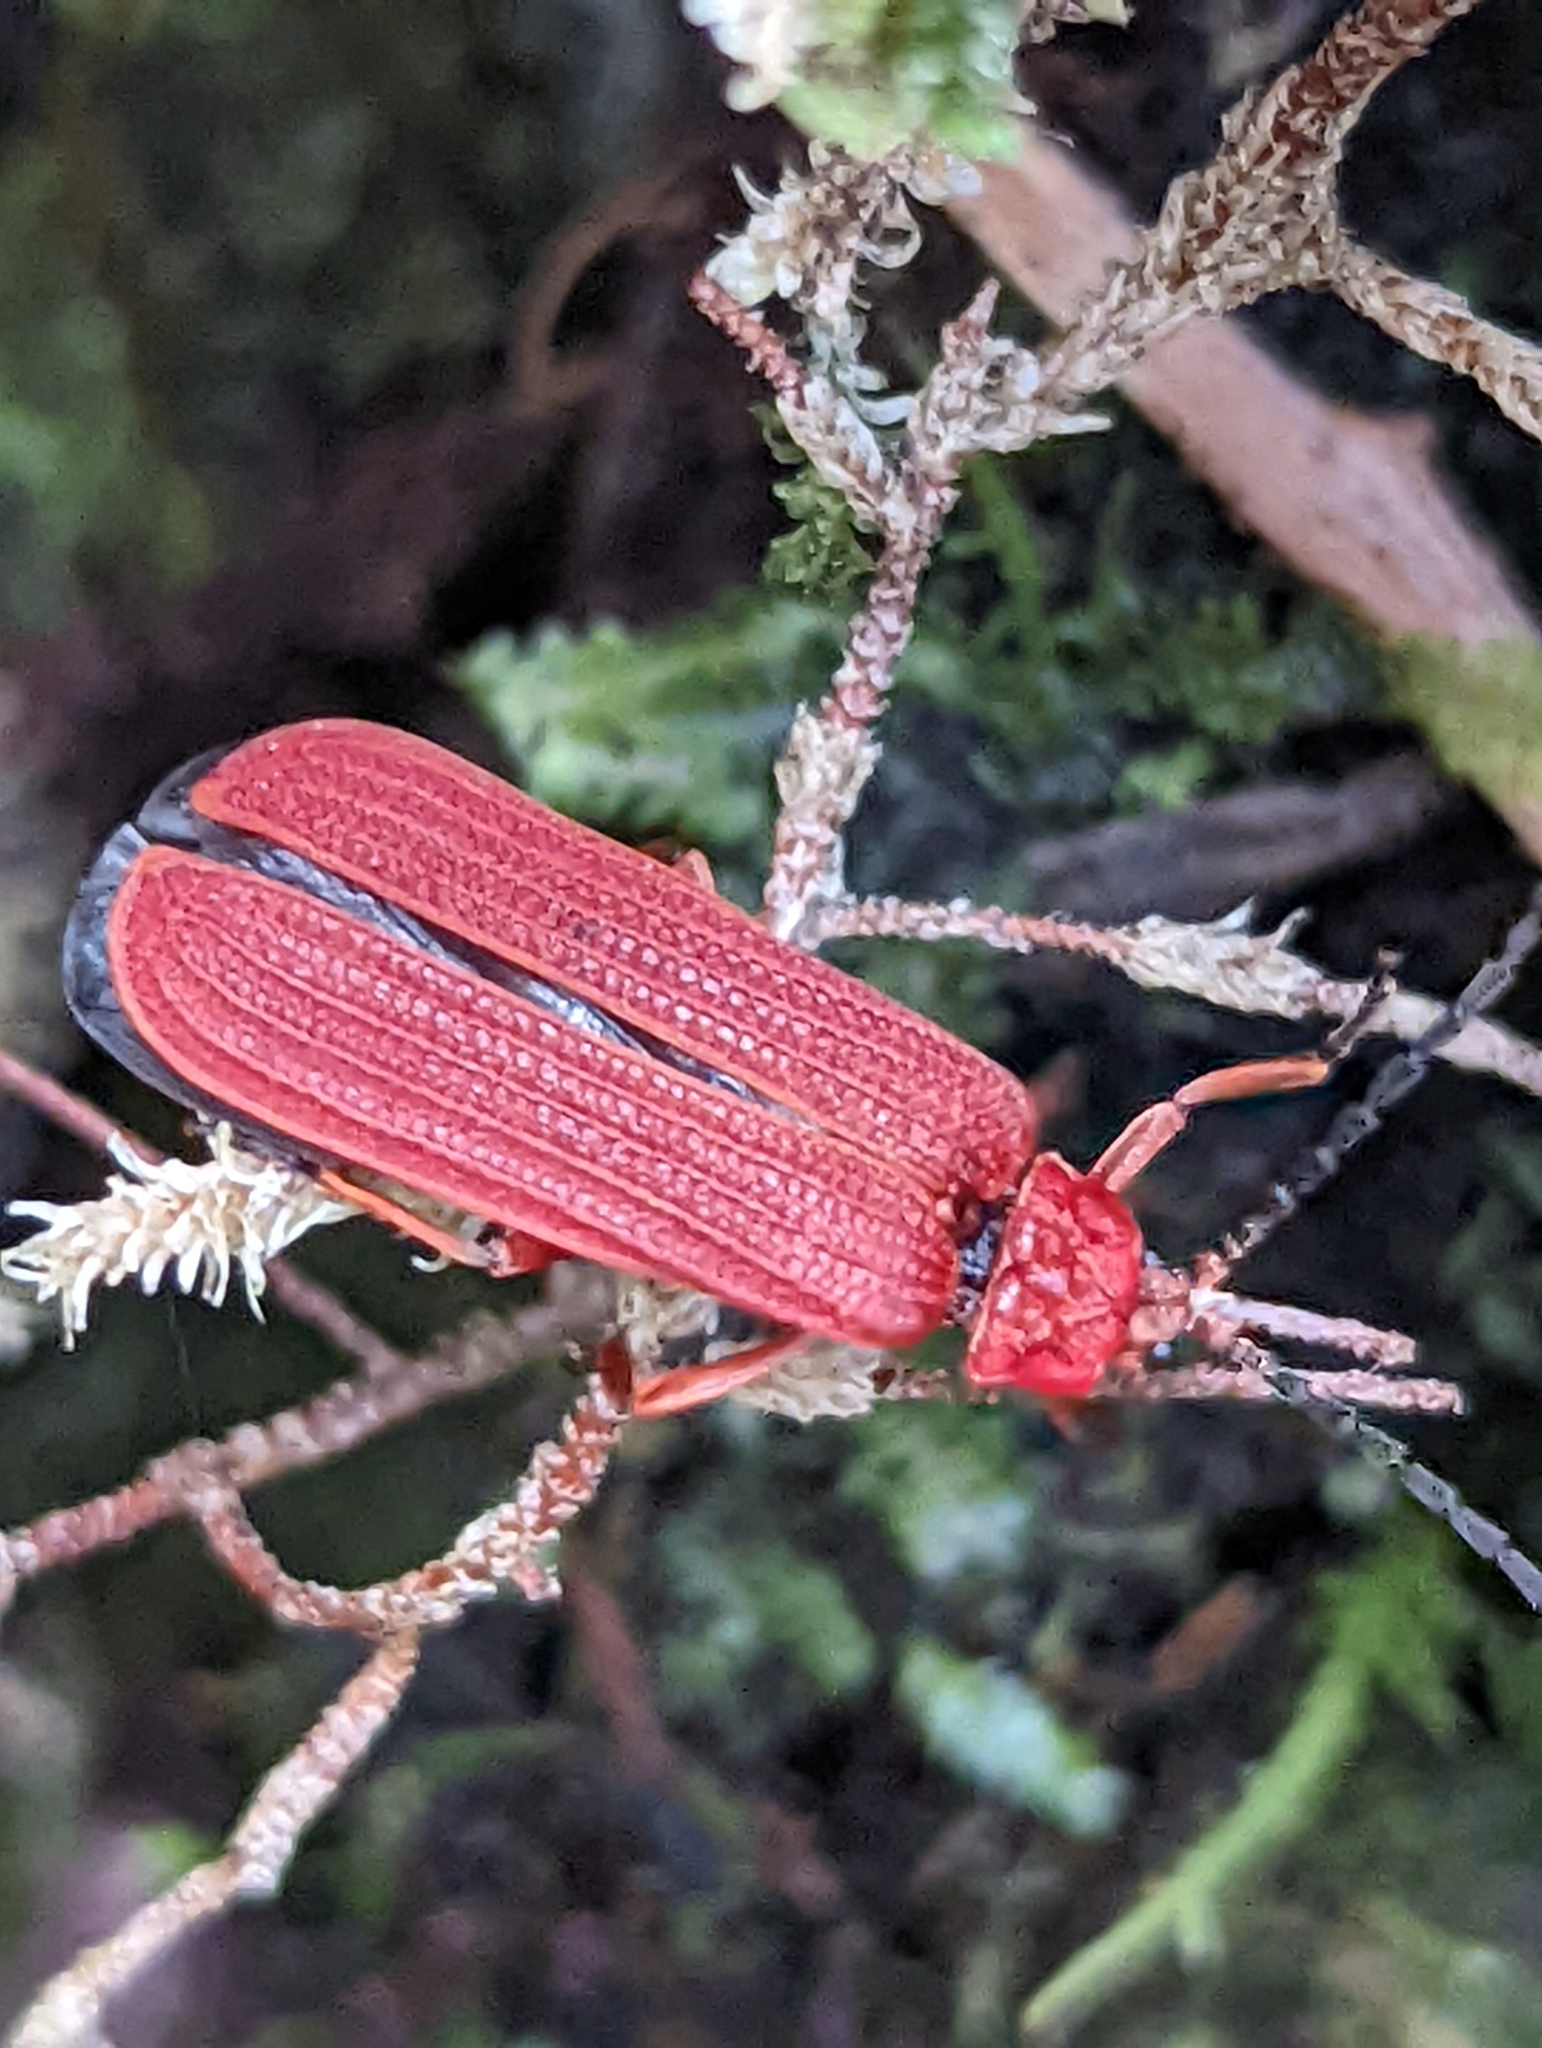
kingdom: Animalia
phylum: Arthropoda
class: Insecta
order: Coleoptera
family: Lycidae
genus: Punicealis
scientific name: Punicealis hamata
